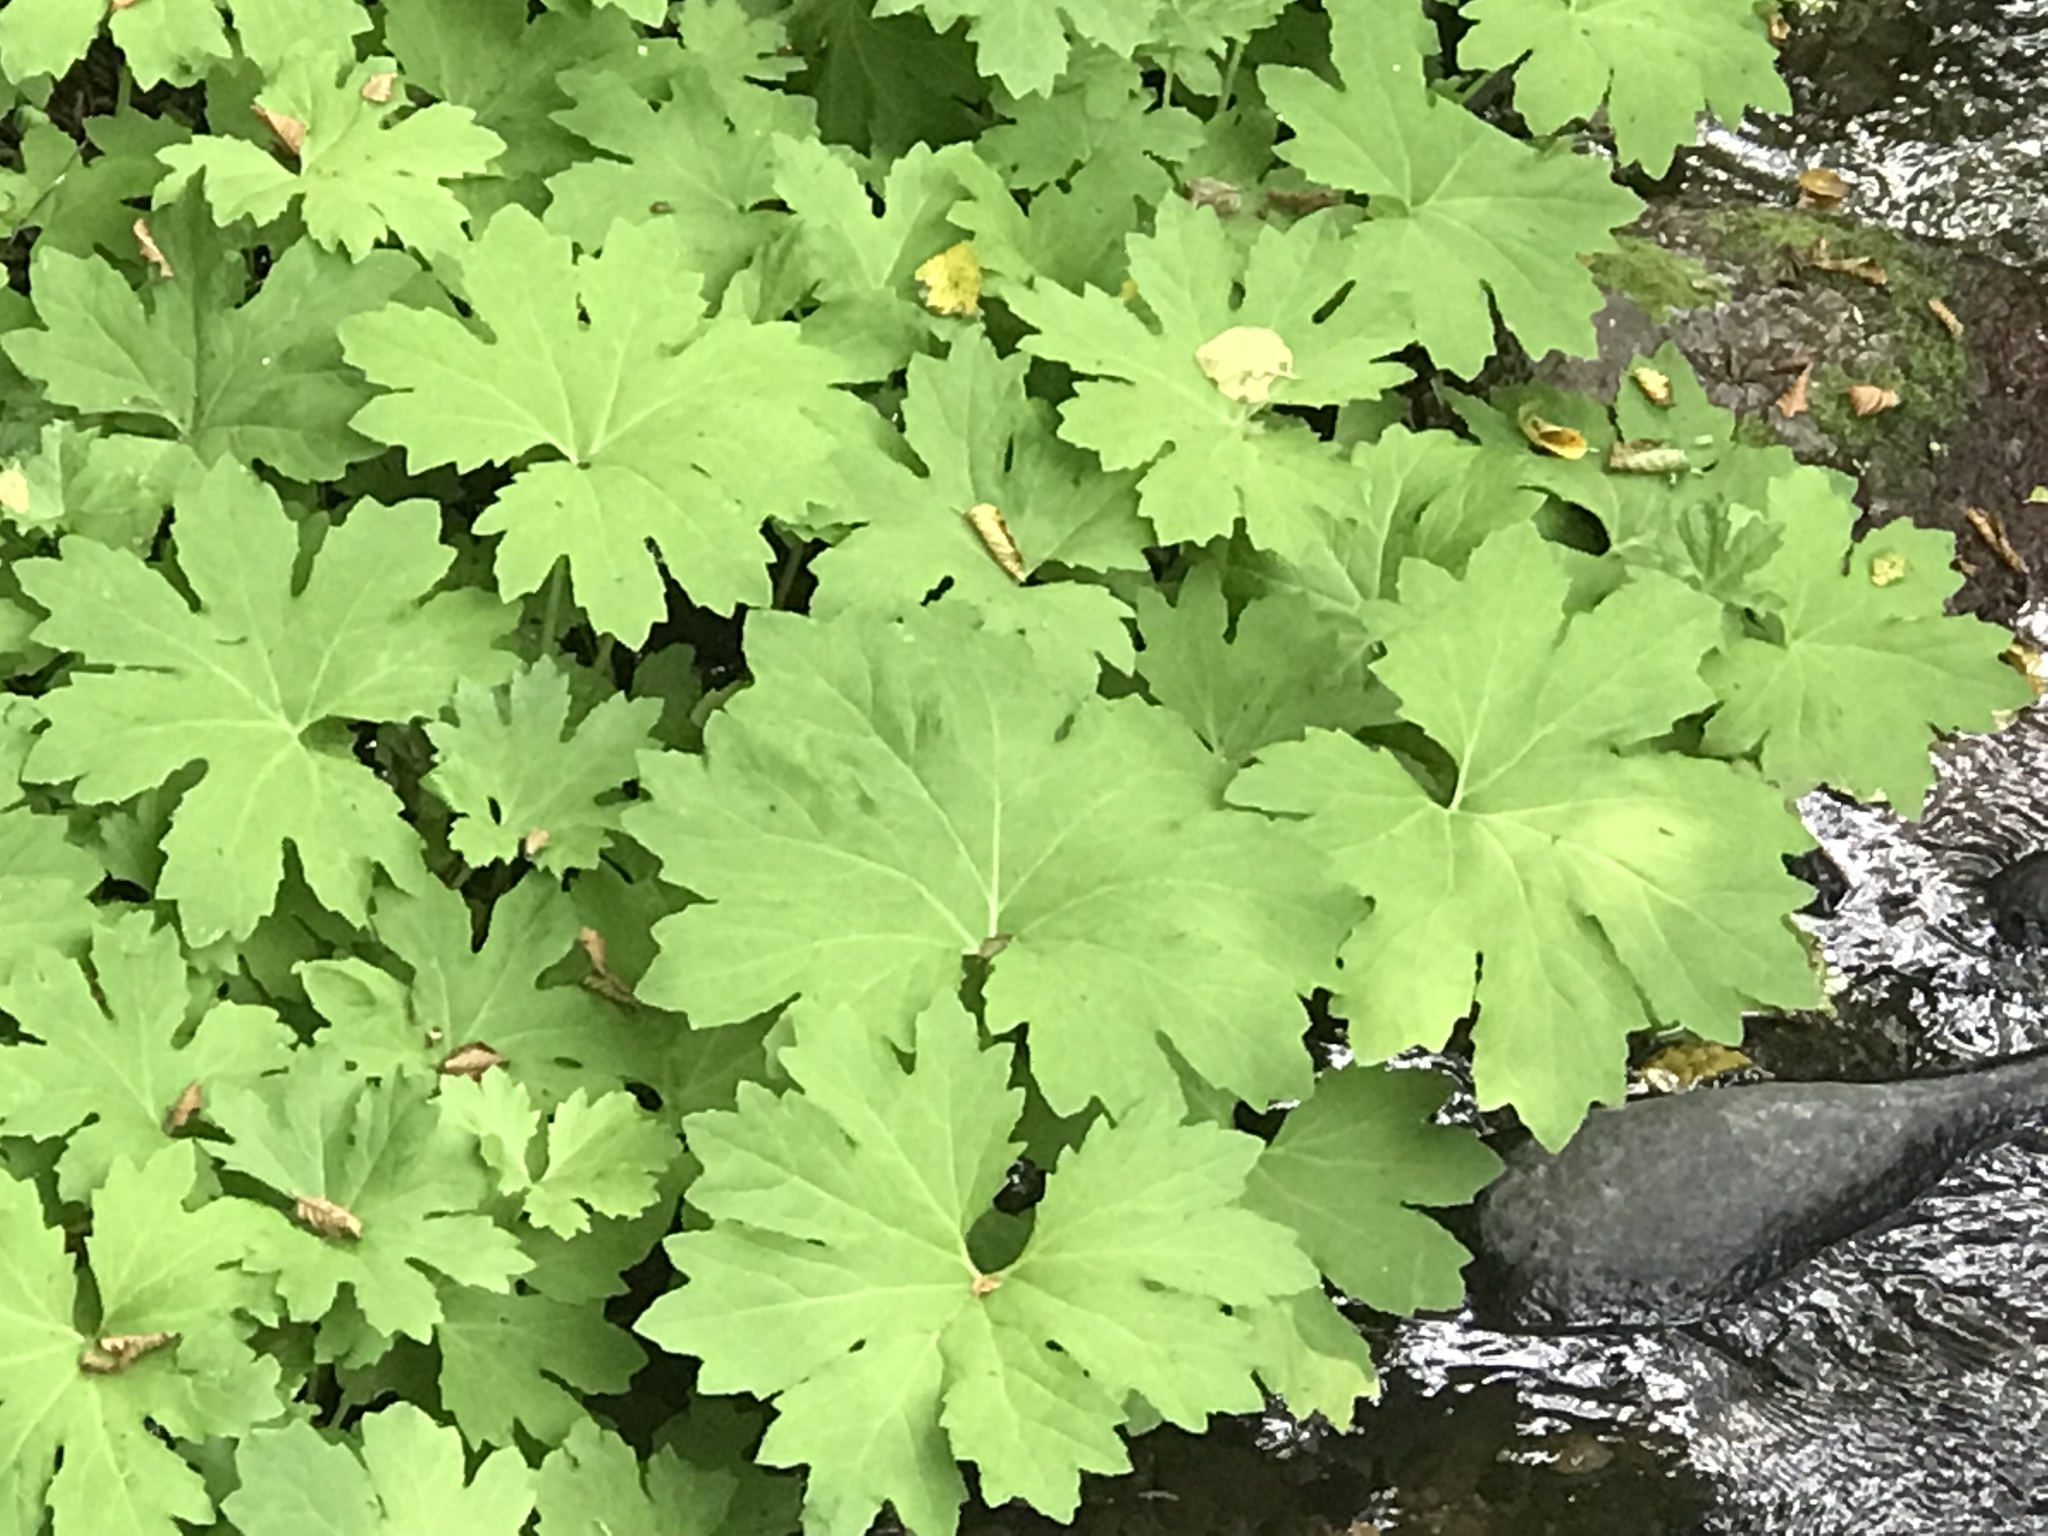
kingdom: Plantae
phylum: Tracheophyta
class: Magnoliopsida
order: Asterales
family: Asteraceae
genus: Petasites
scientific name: Petasites frigidus
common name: Arctic butterbur
